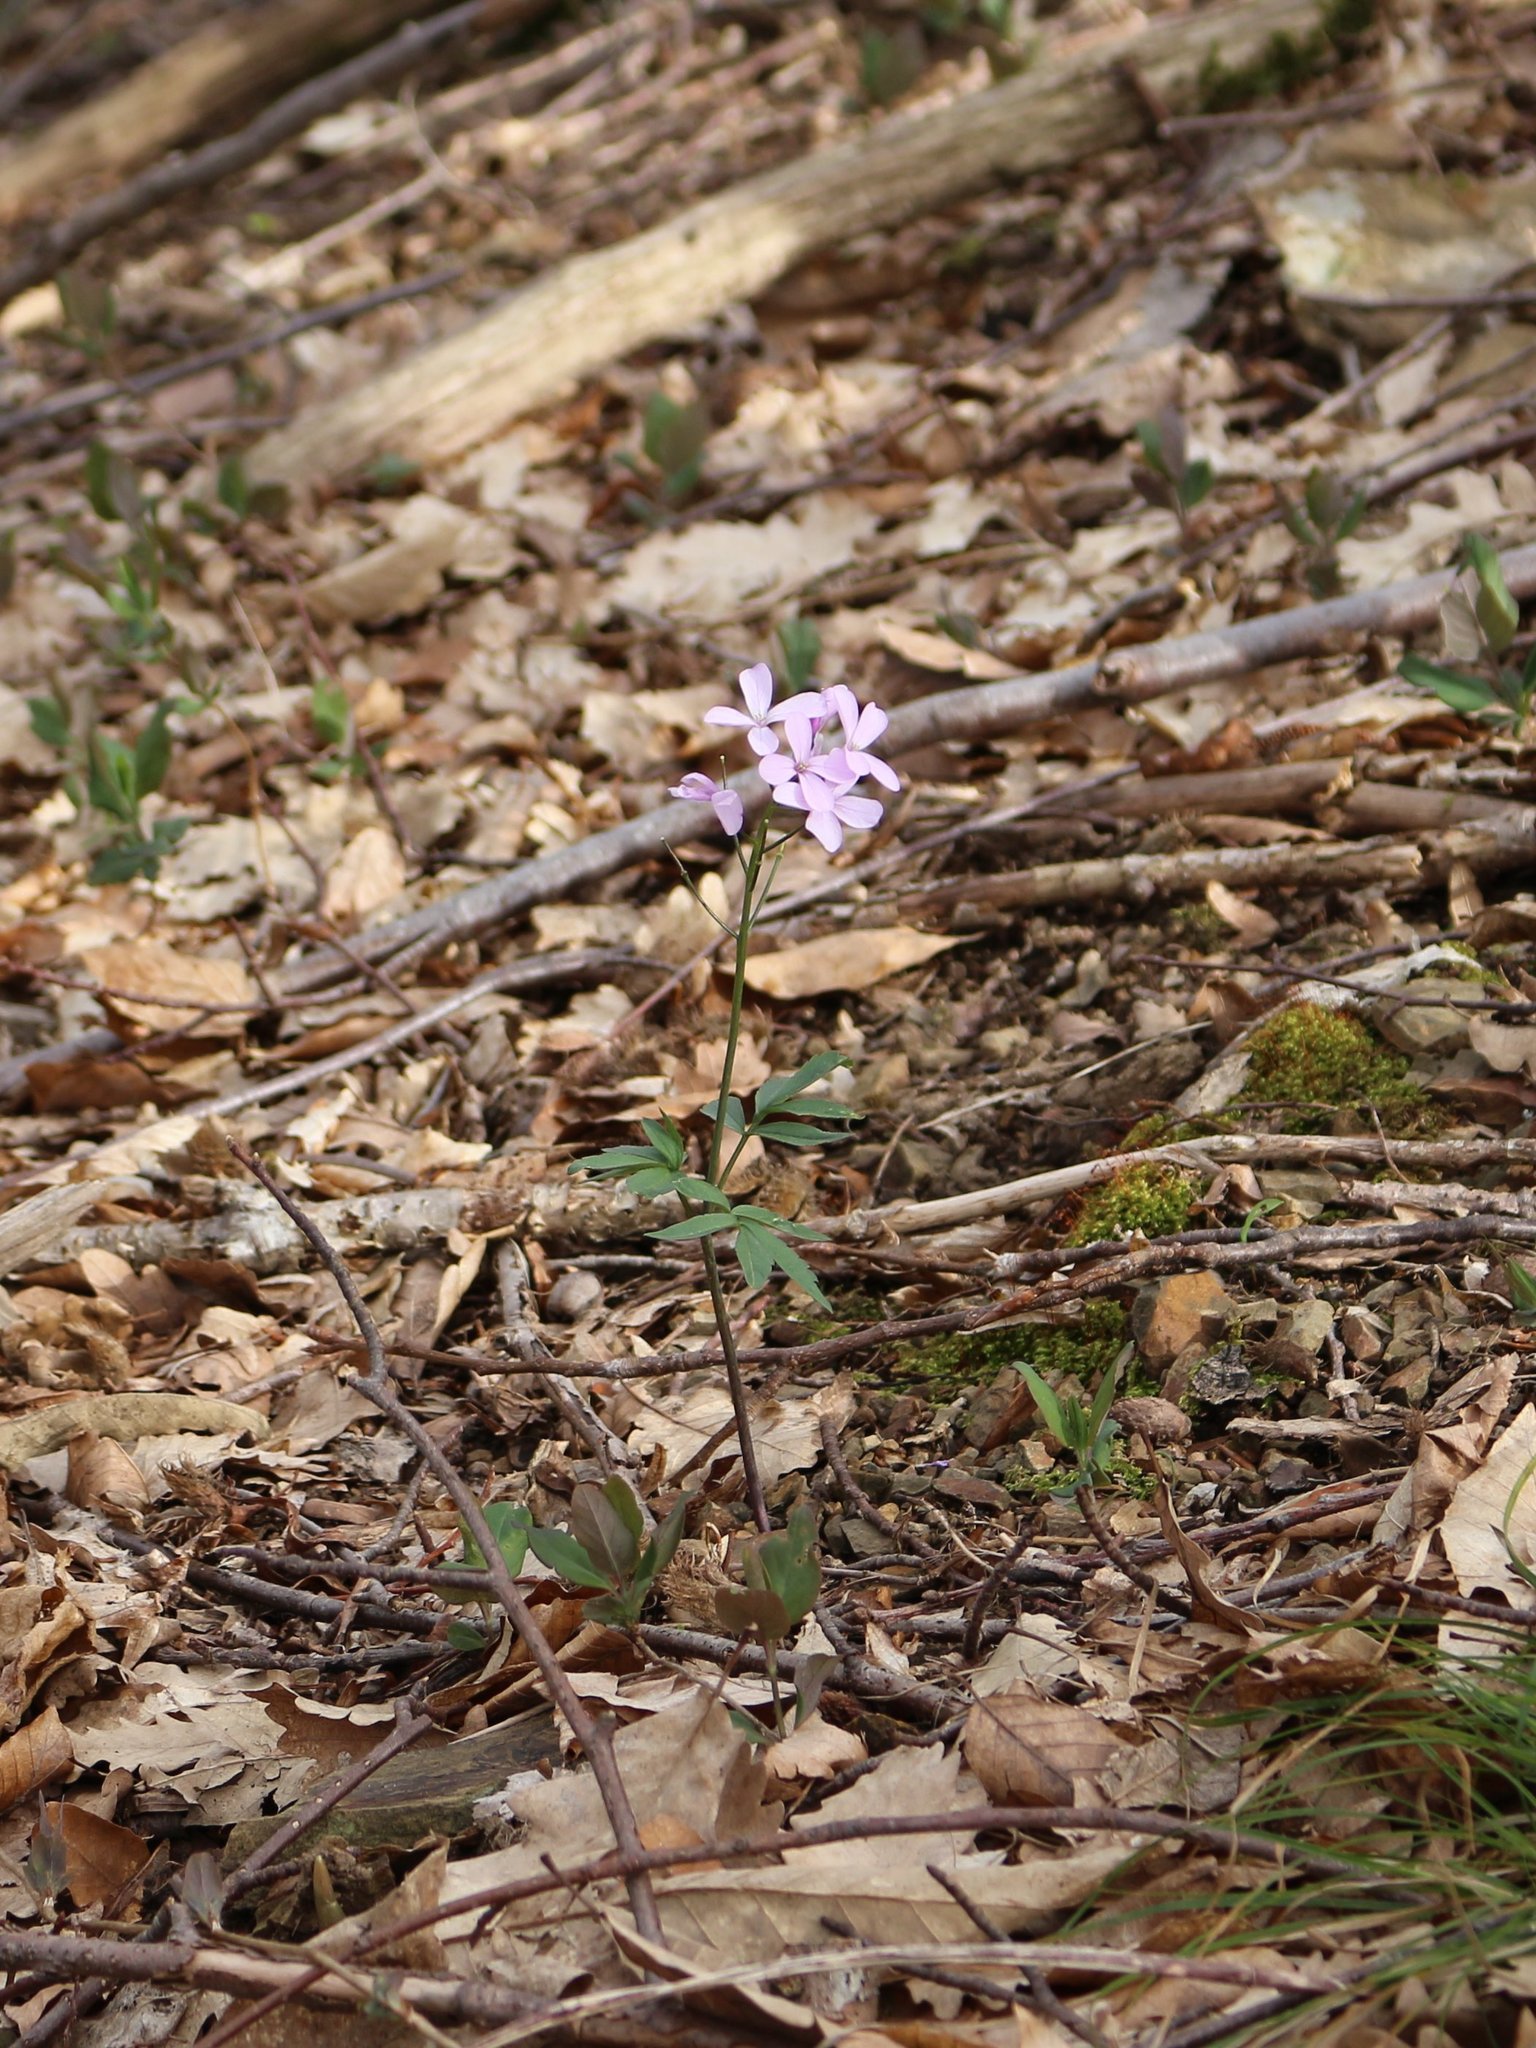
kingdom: Plantae
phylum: Tracheophyta
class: Magnoliopsida
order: Brassicales
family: Brassicaceae
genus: Cardamine
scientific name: Cardamine quinquefolia
